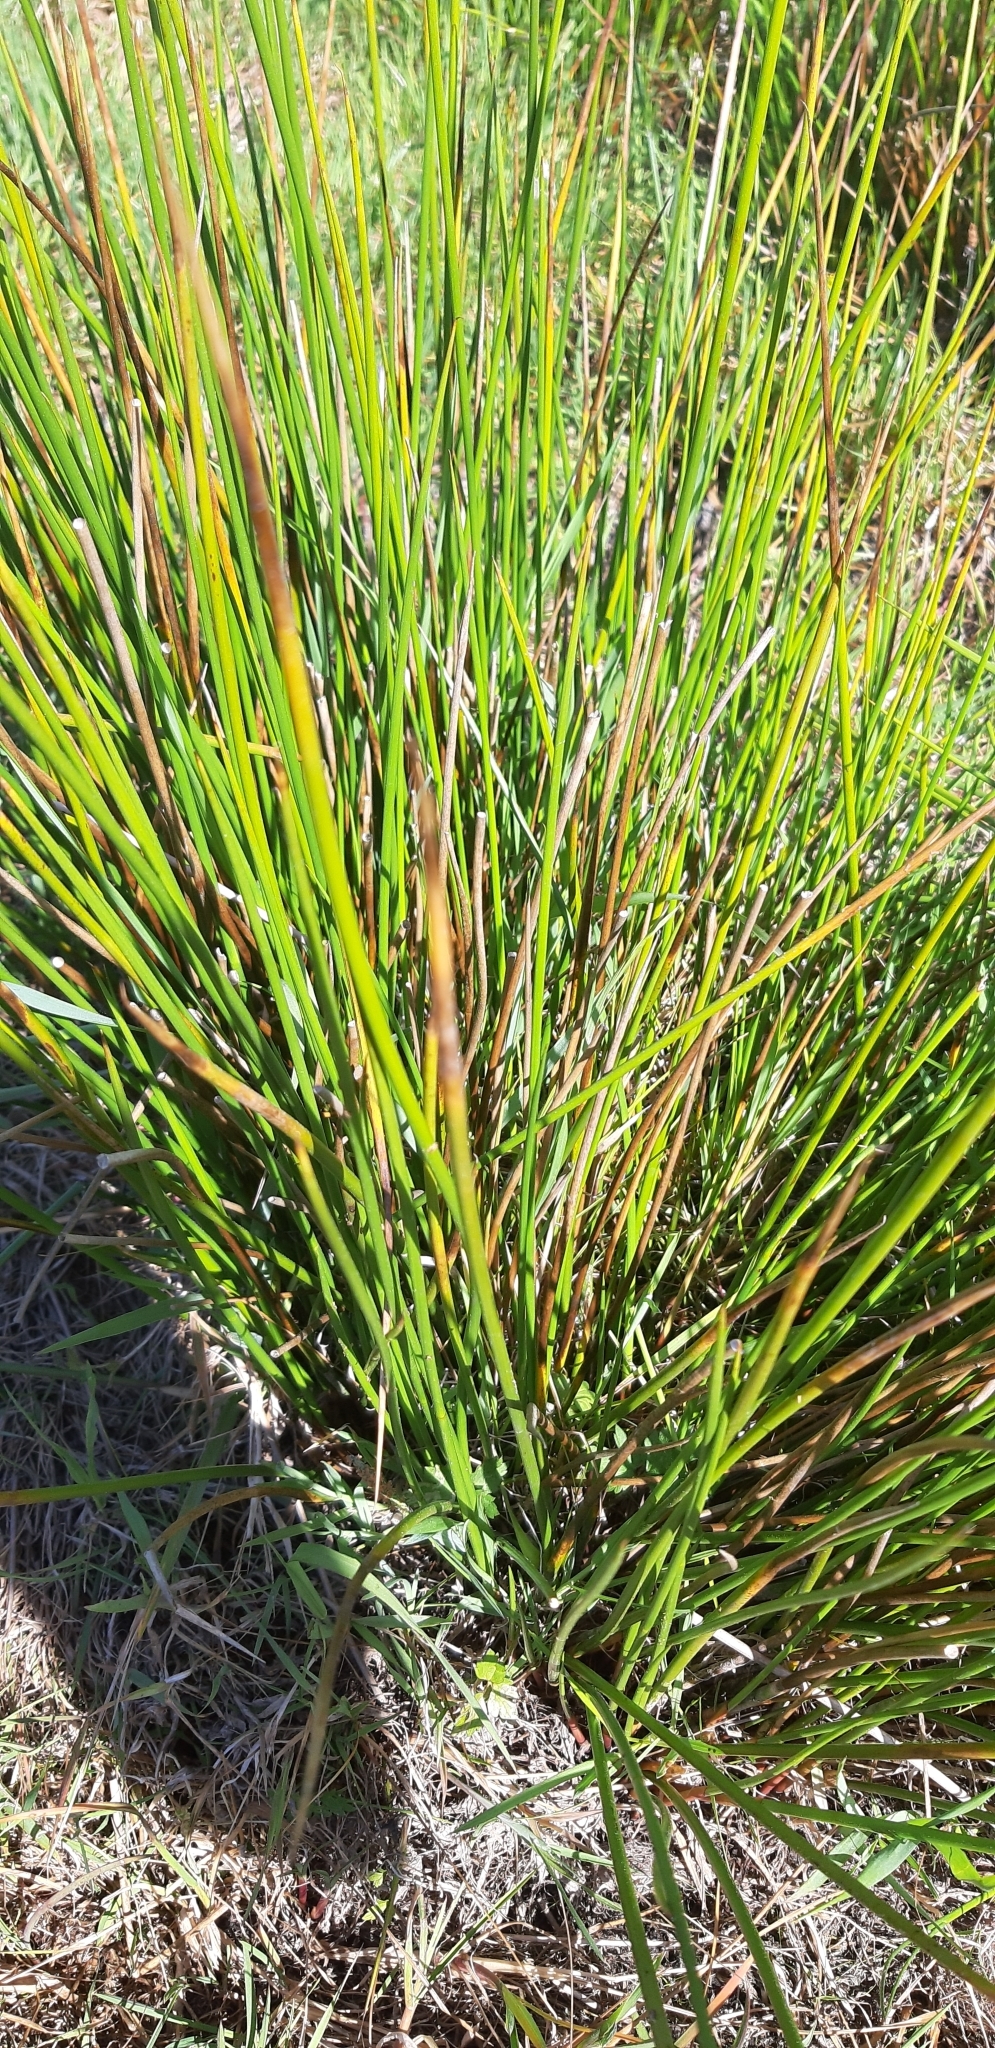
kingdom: Plantae
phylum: Tracheophyta
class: Liliopsida
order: Poales
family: Juncaceae
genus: Juncus
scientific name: Juncus effusus
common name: Soft rush
